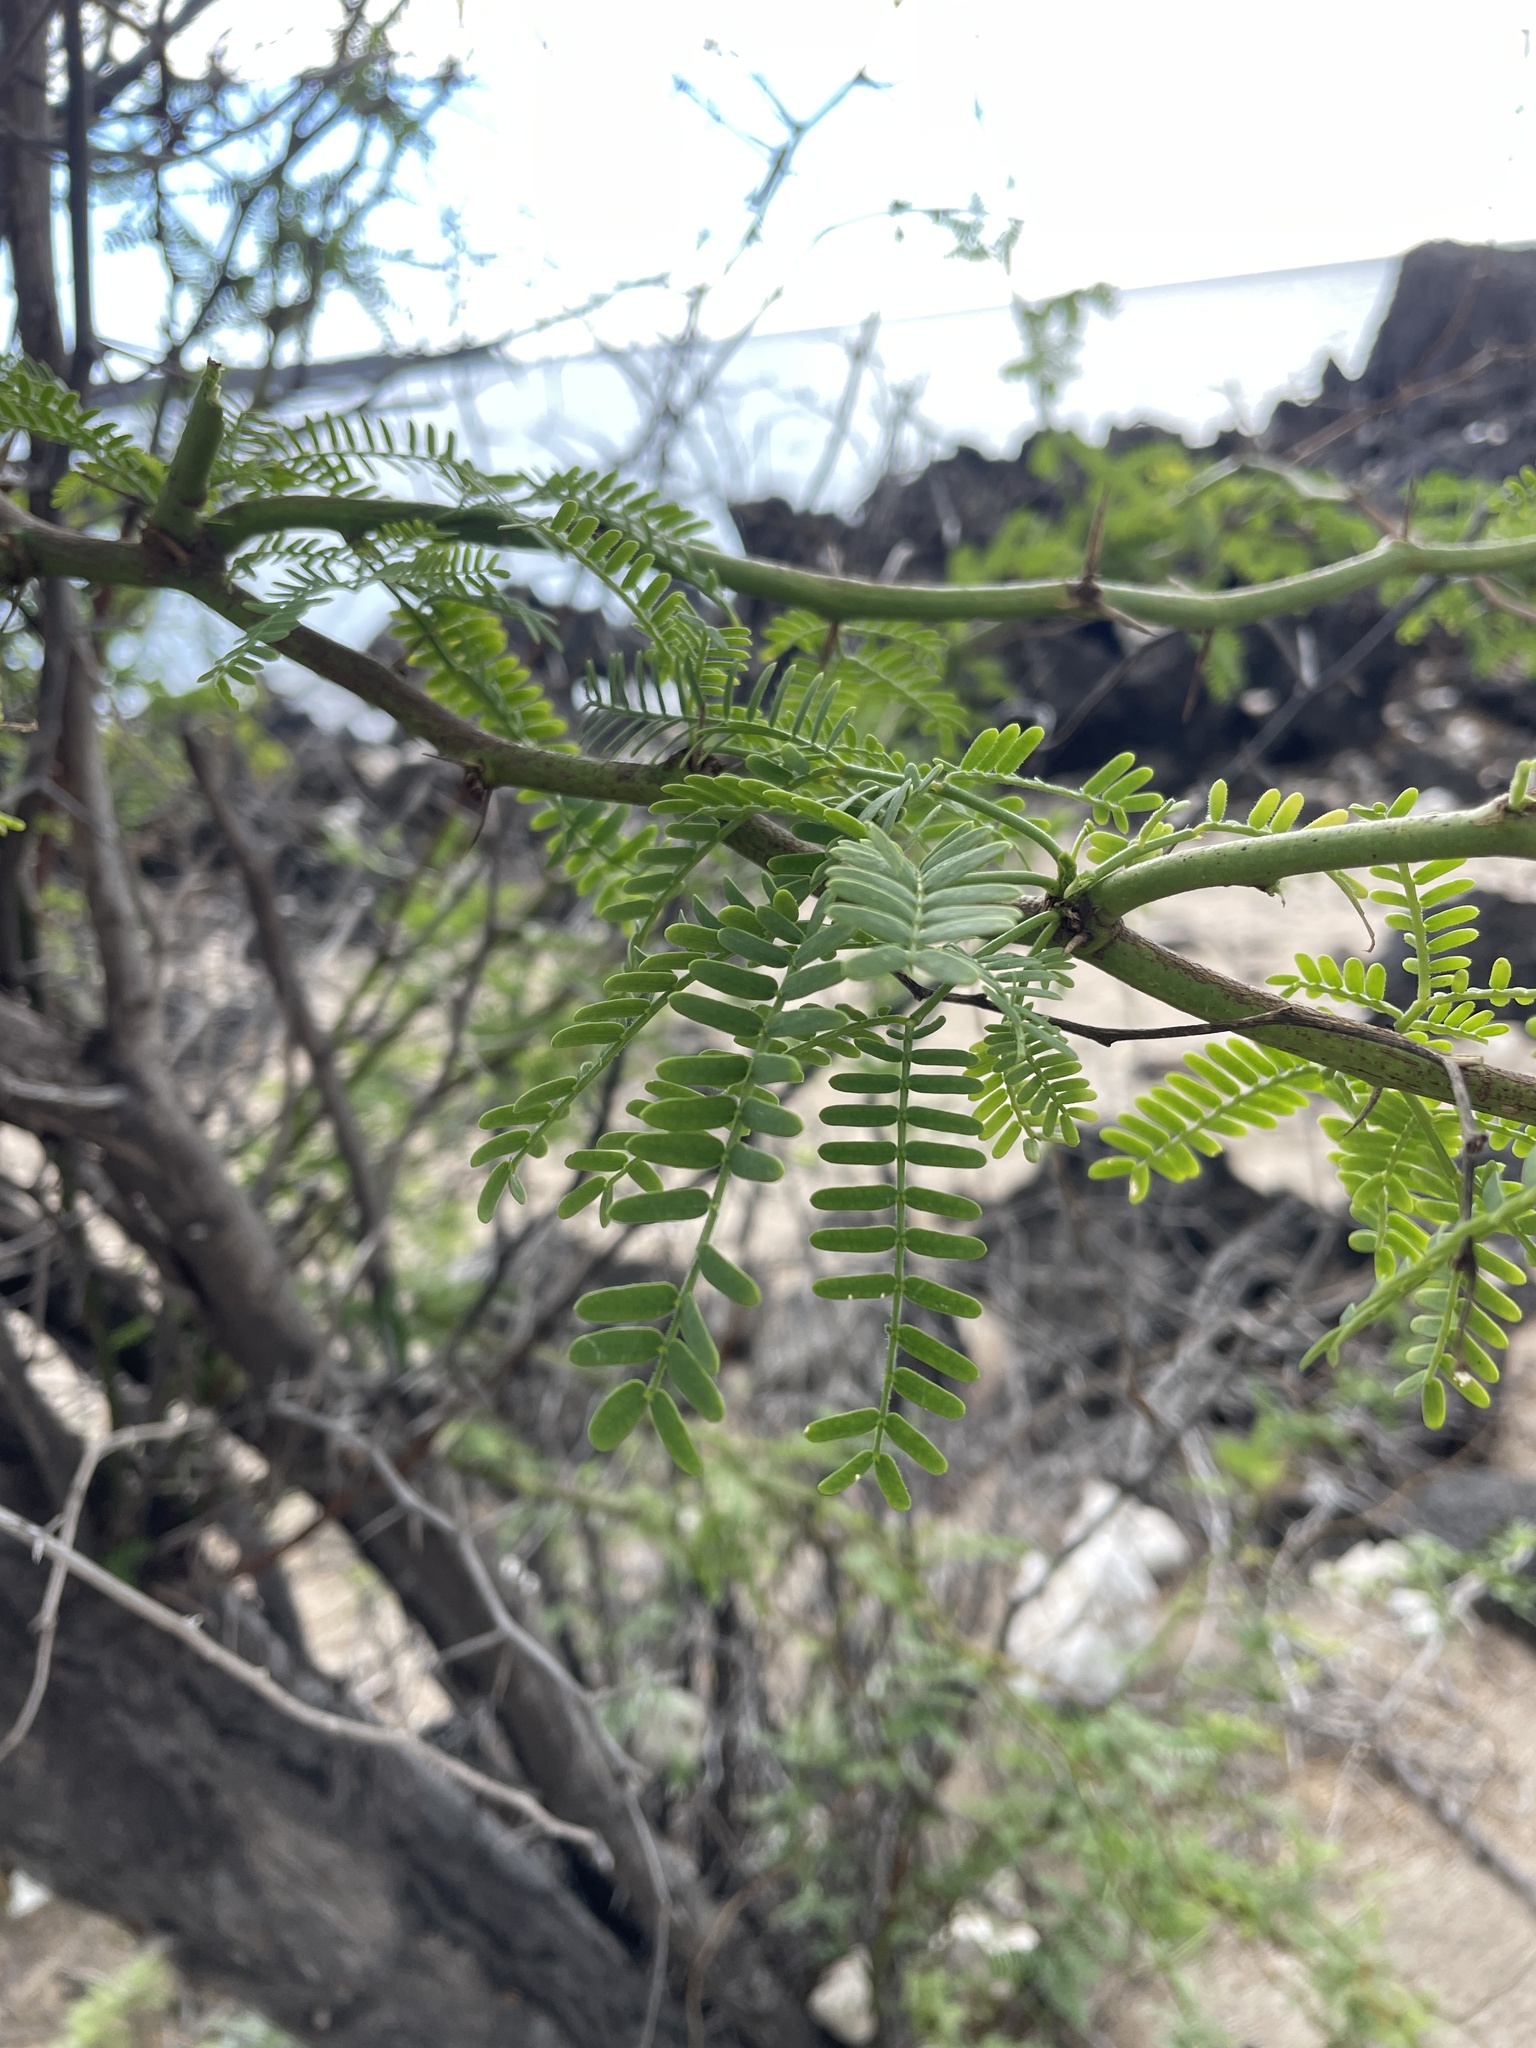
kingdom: Plantae
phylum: Tracheophyta
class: Magnoliopsida
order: Fabales
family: Fabaceae
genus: Prosopis
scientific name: Prosopis pallida
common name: Mesquite
